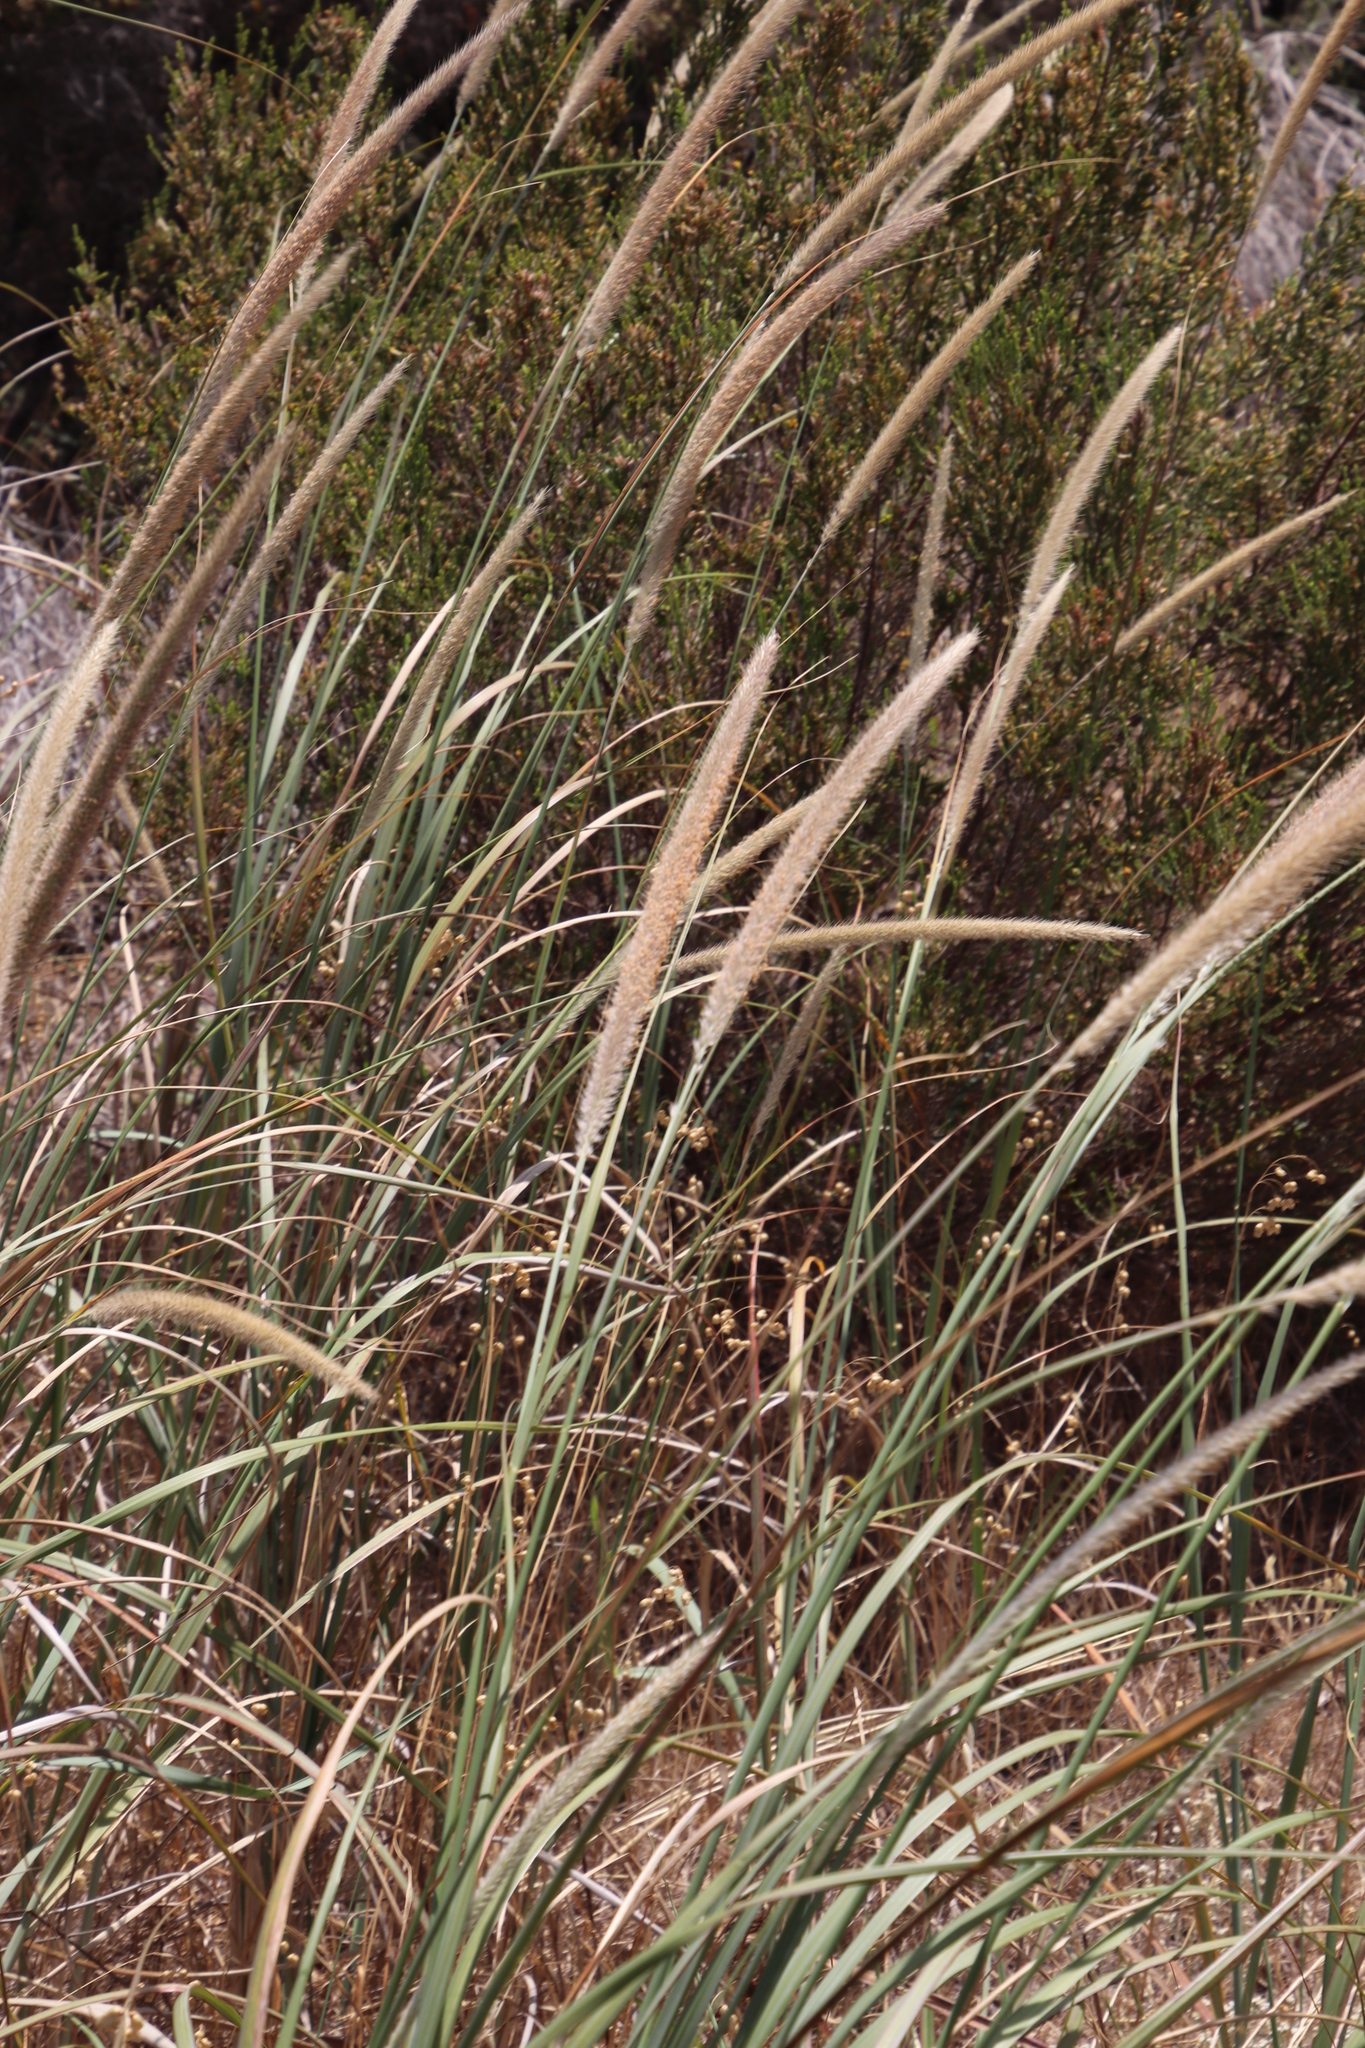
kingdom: Plantae
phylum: Tracheophyta
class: Liliopsida
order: Poales
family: Poaceae
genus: Cenchrus
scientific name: Cenchrus caudatus
